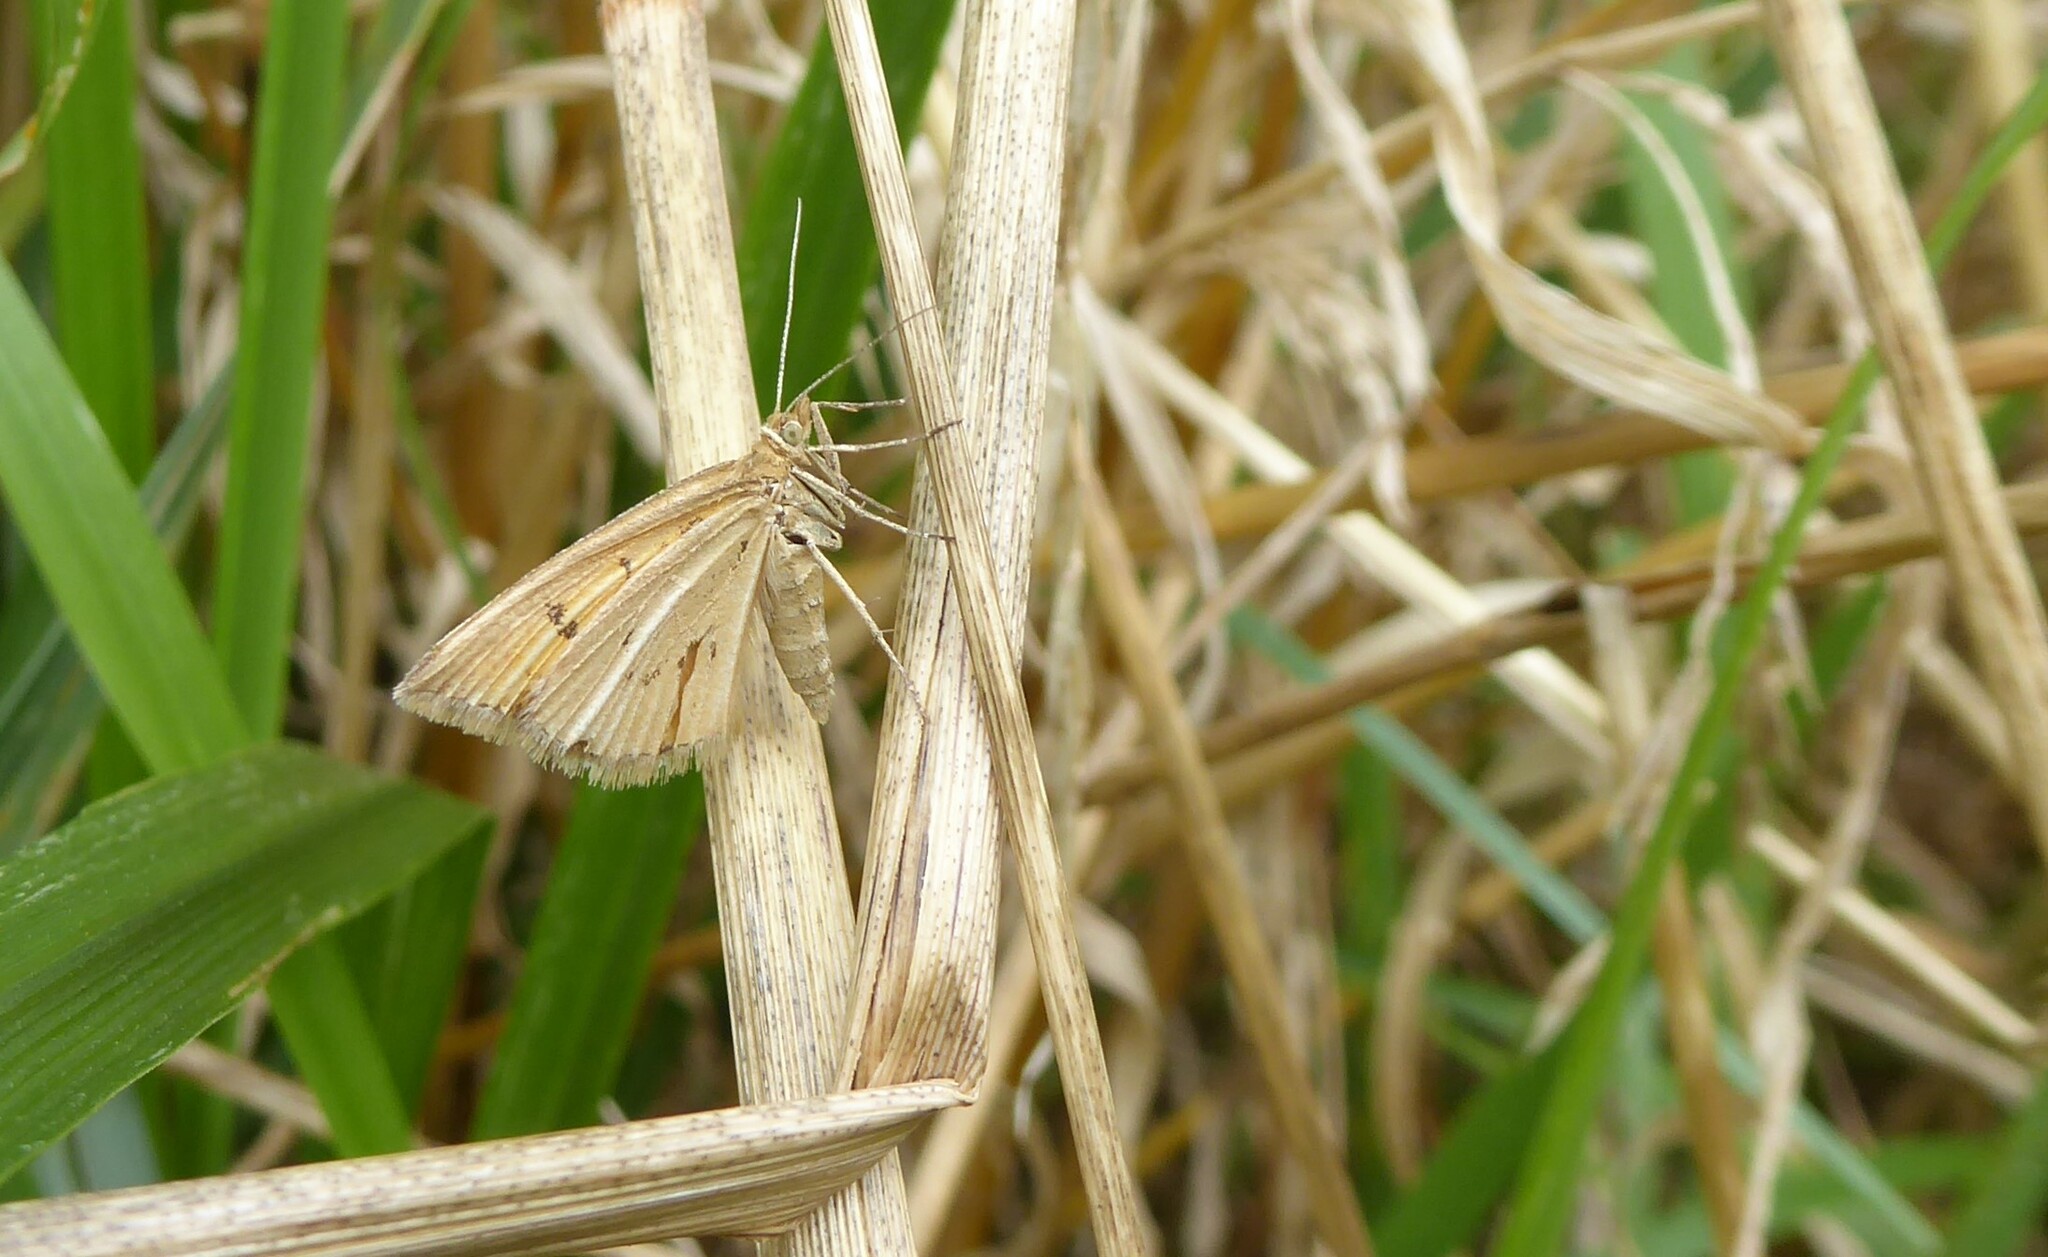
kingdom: Animalia
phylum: Arthropoda
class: Insecta
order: Lepidoptera
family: Geometridae
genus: Asaphodes
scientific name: Asaphodes abrogata
